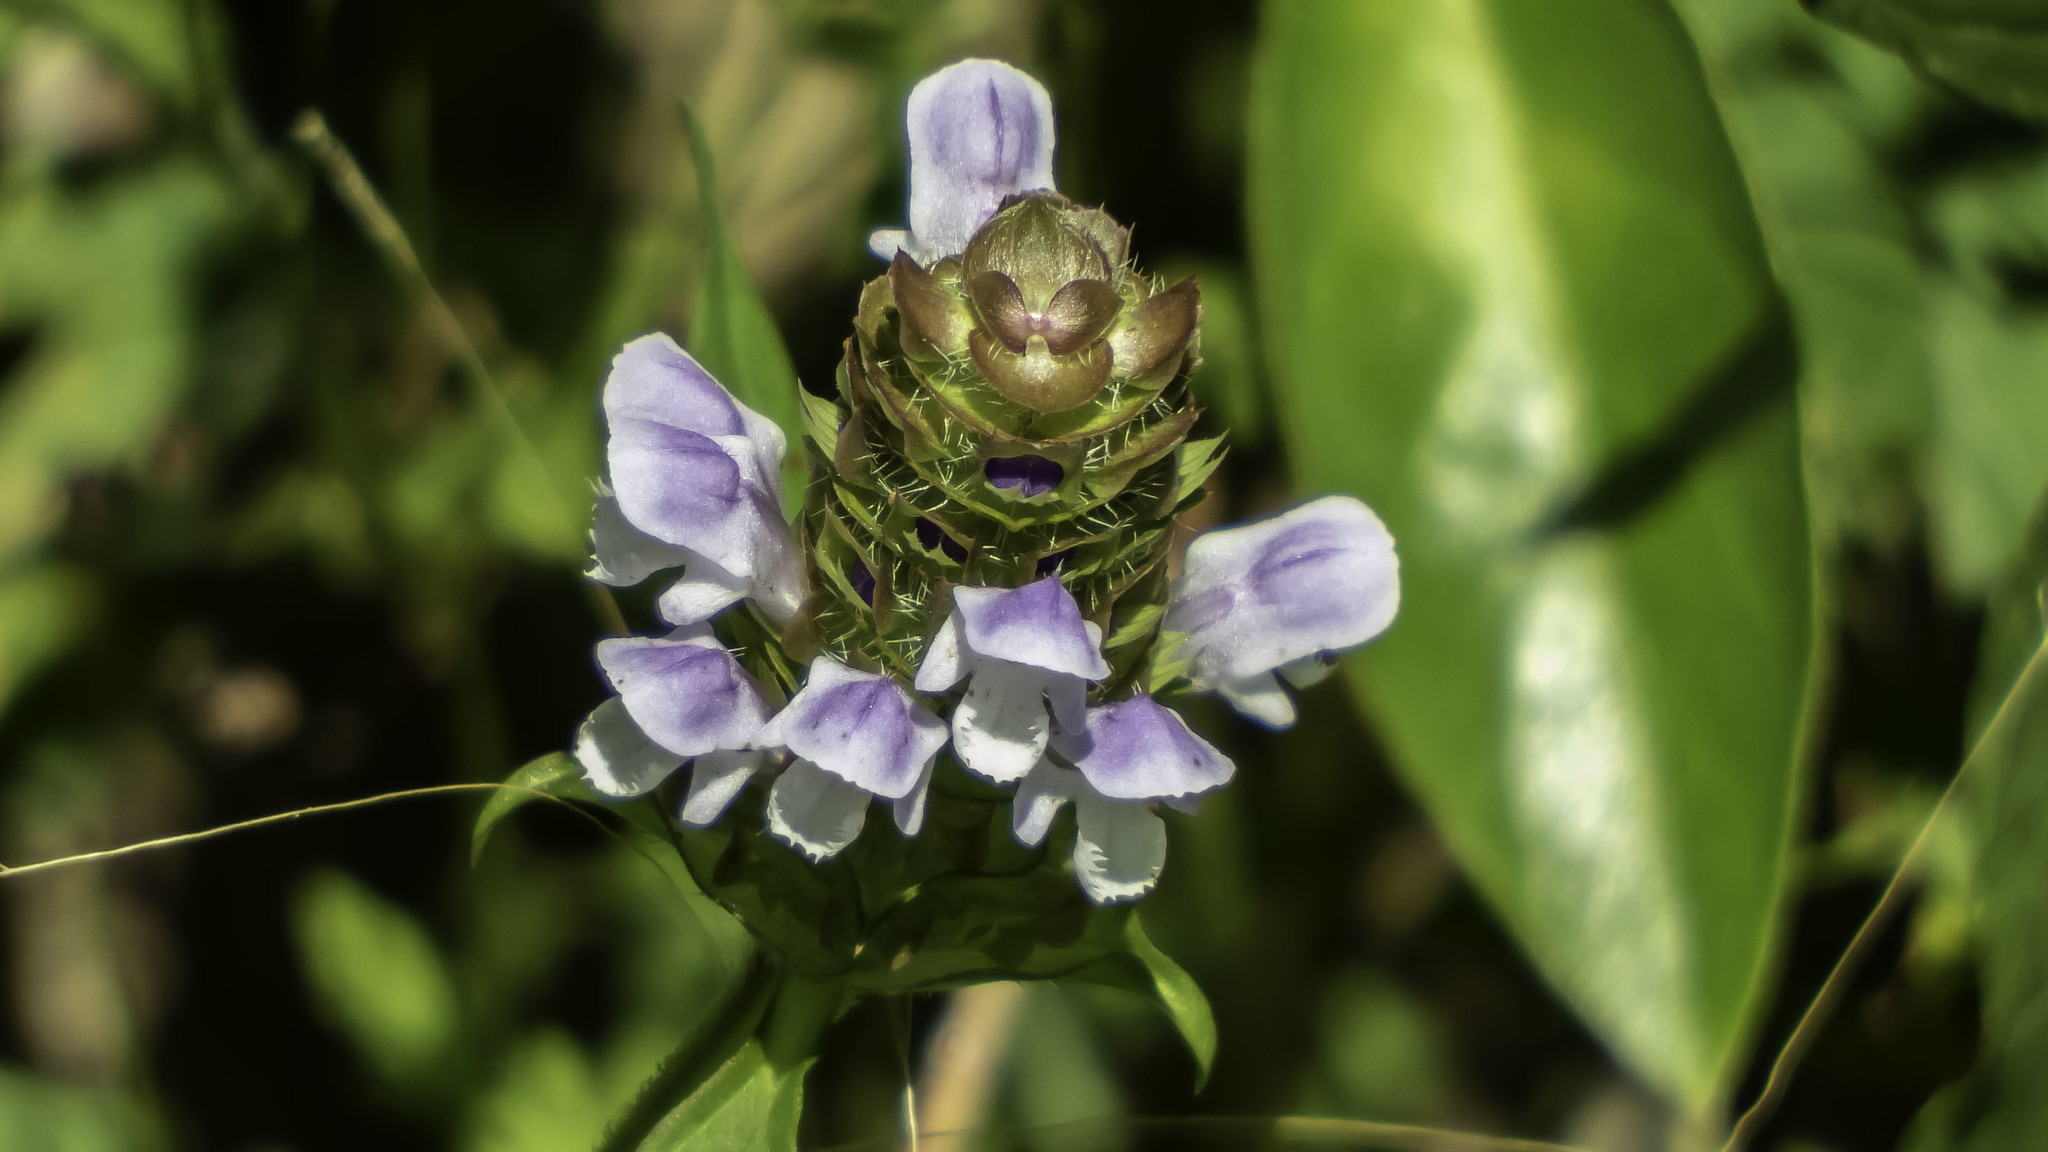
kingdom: Plantae
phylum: Tracheophyta
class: Magnoliopsida
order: Lamiales
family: Lamiaceae
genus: Prunella
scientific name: Prunella vulgaris
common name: Heal-all
